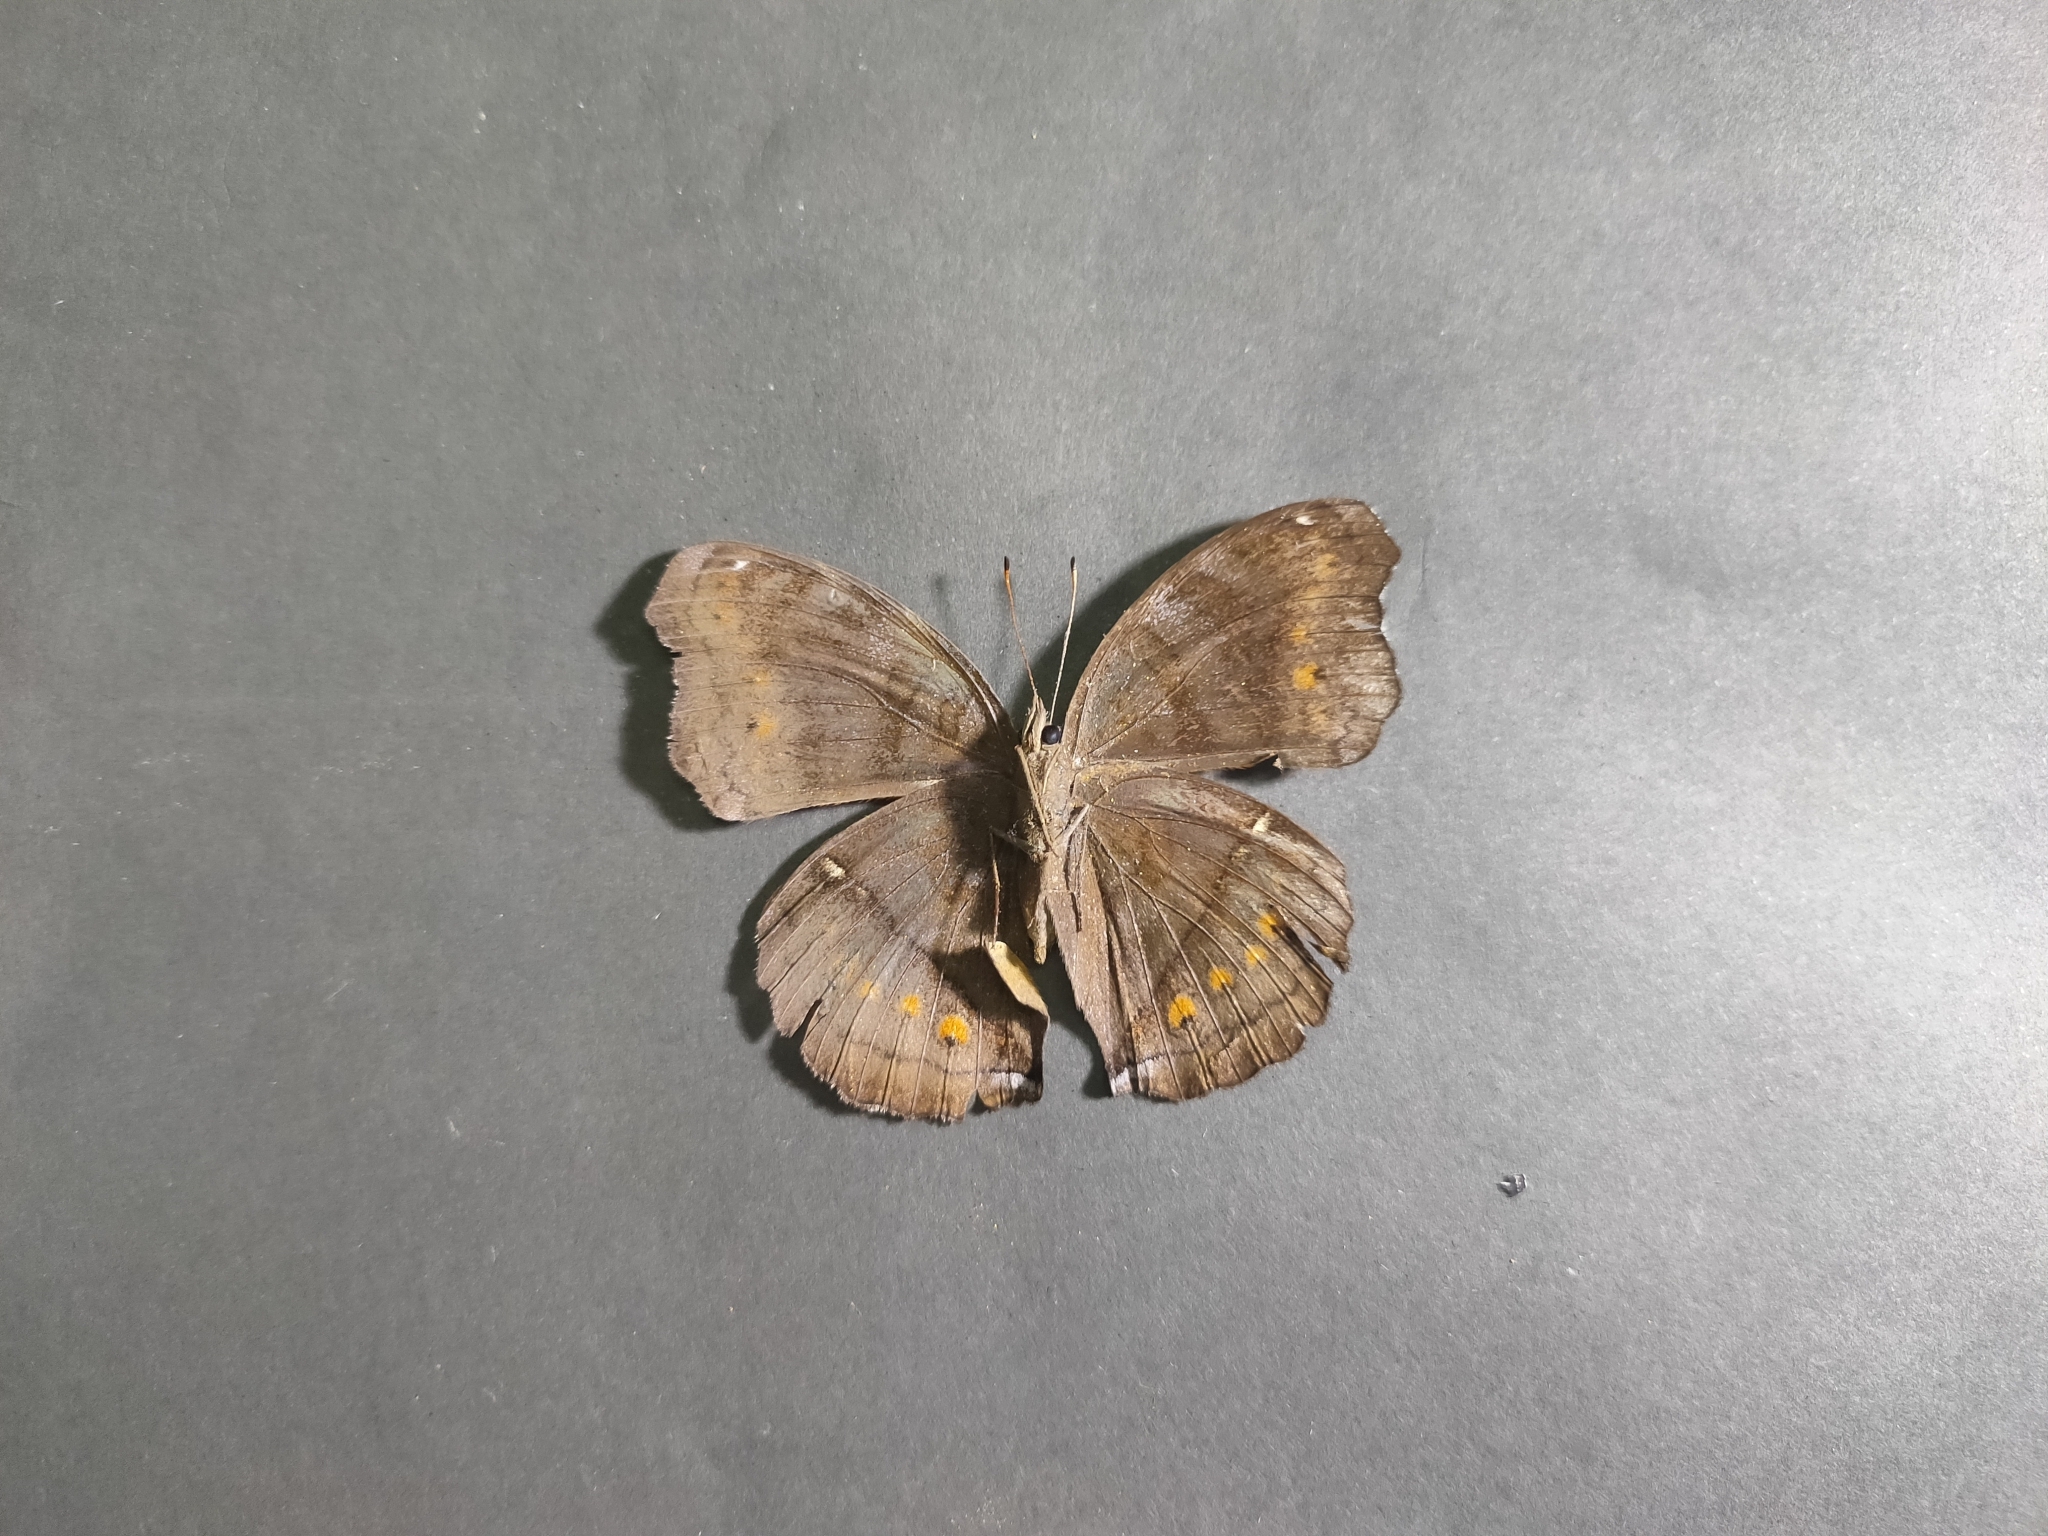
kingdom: Animalia
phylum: Arthropoda
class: Insecta
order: Lepidoptera
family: Nymphalidae
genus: Junonia
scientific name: Junonia hedonia
